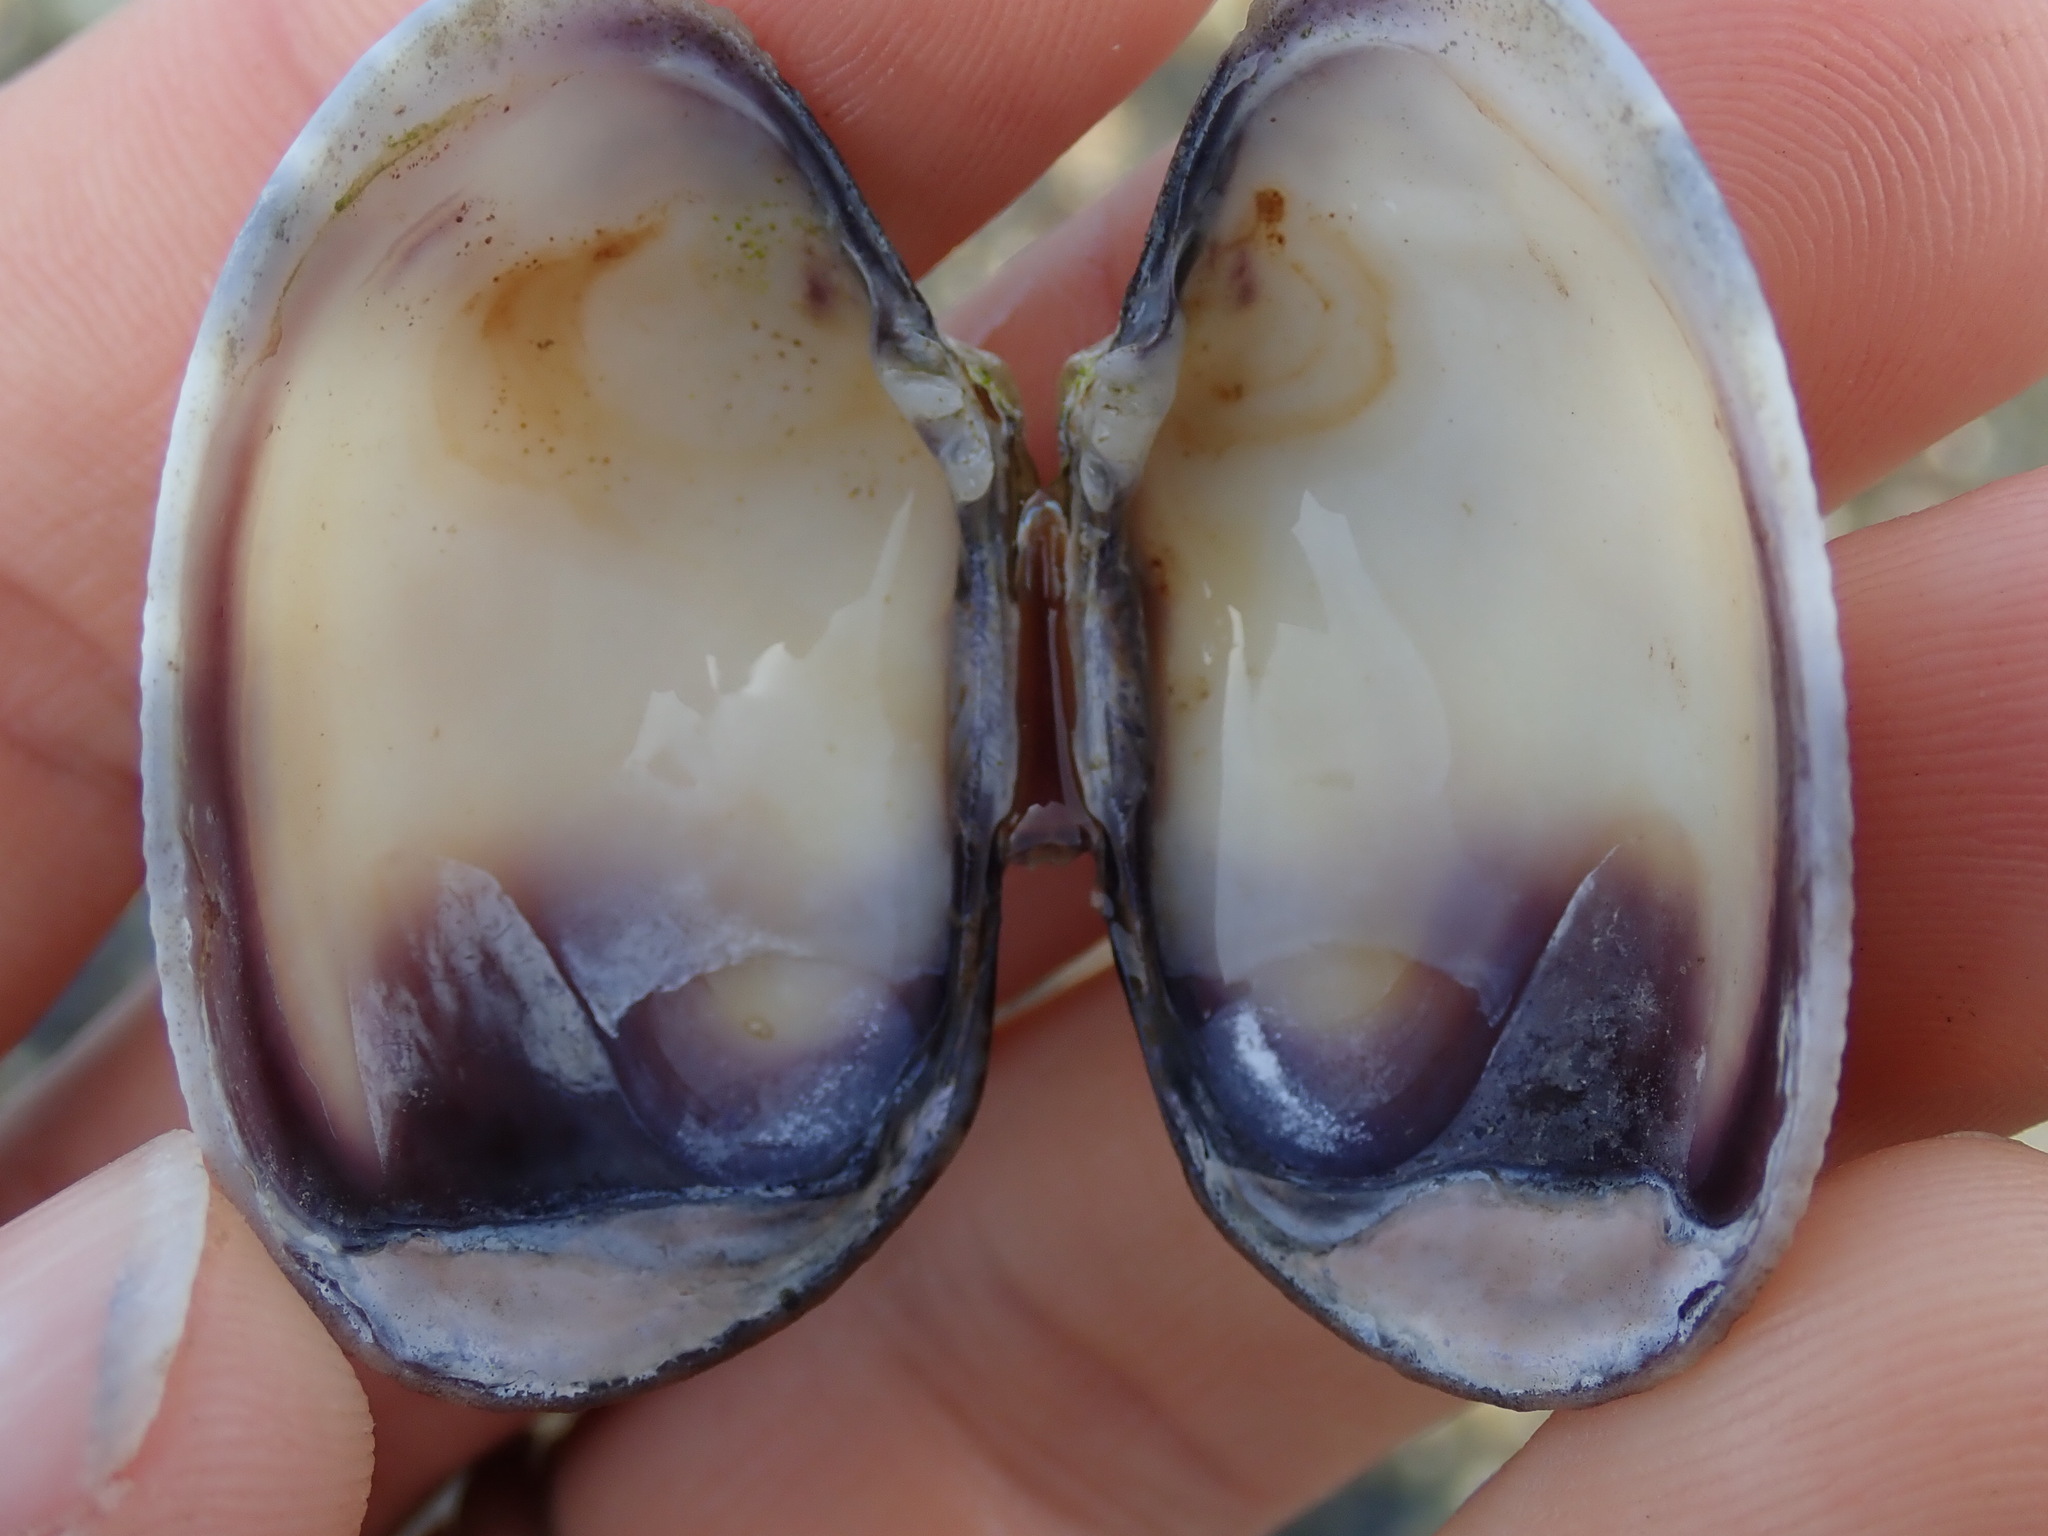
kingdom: Animalia
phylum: Mollusca
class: Bivalvia
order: Venerida
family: Veneridae
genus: Ruditapes
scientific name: Ruditapes philippinarum
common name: Manila clam
